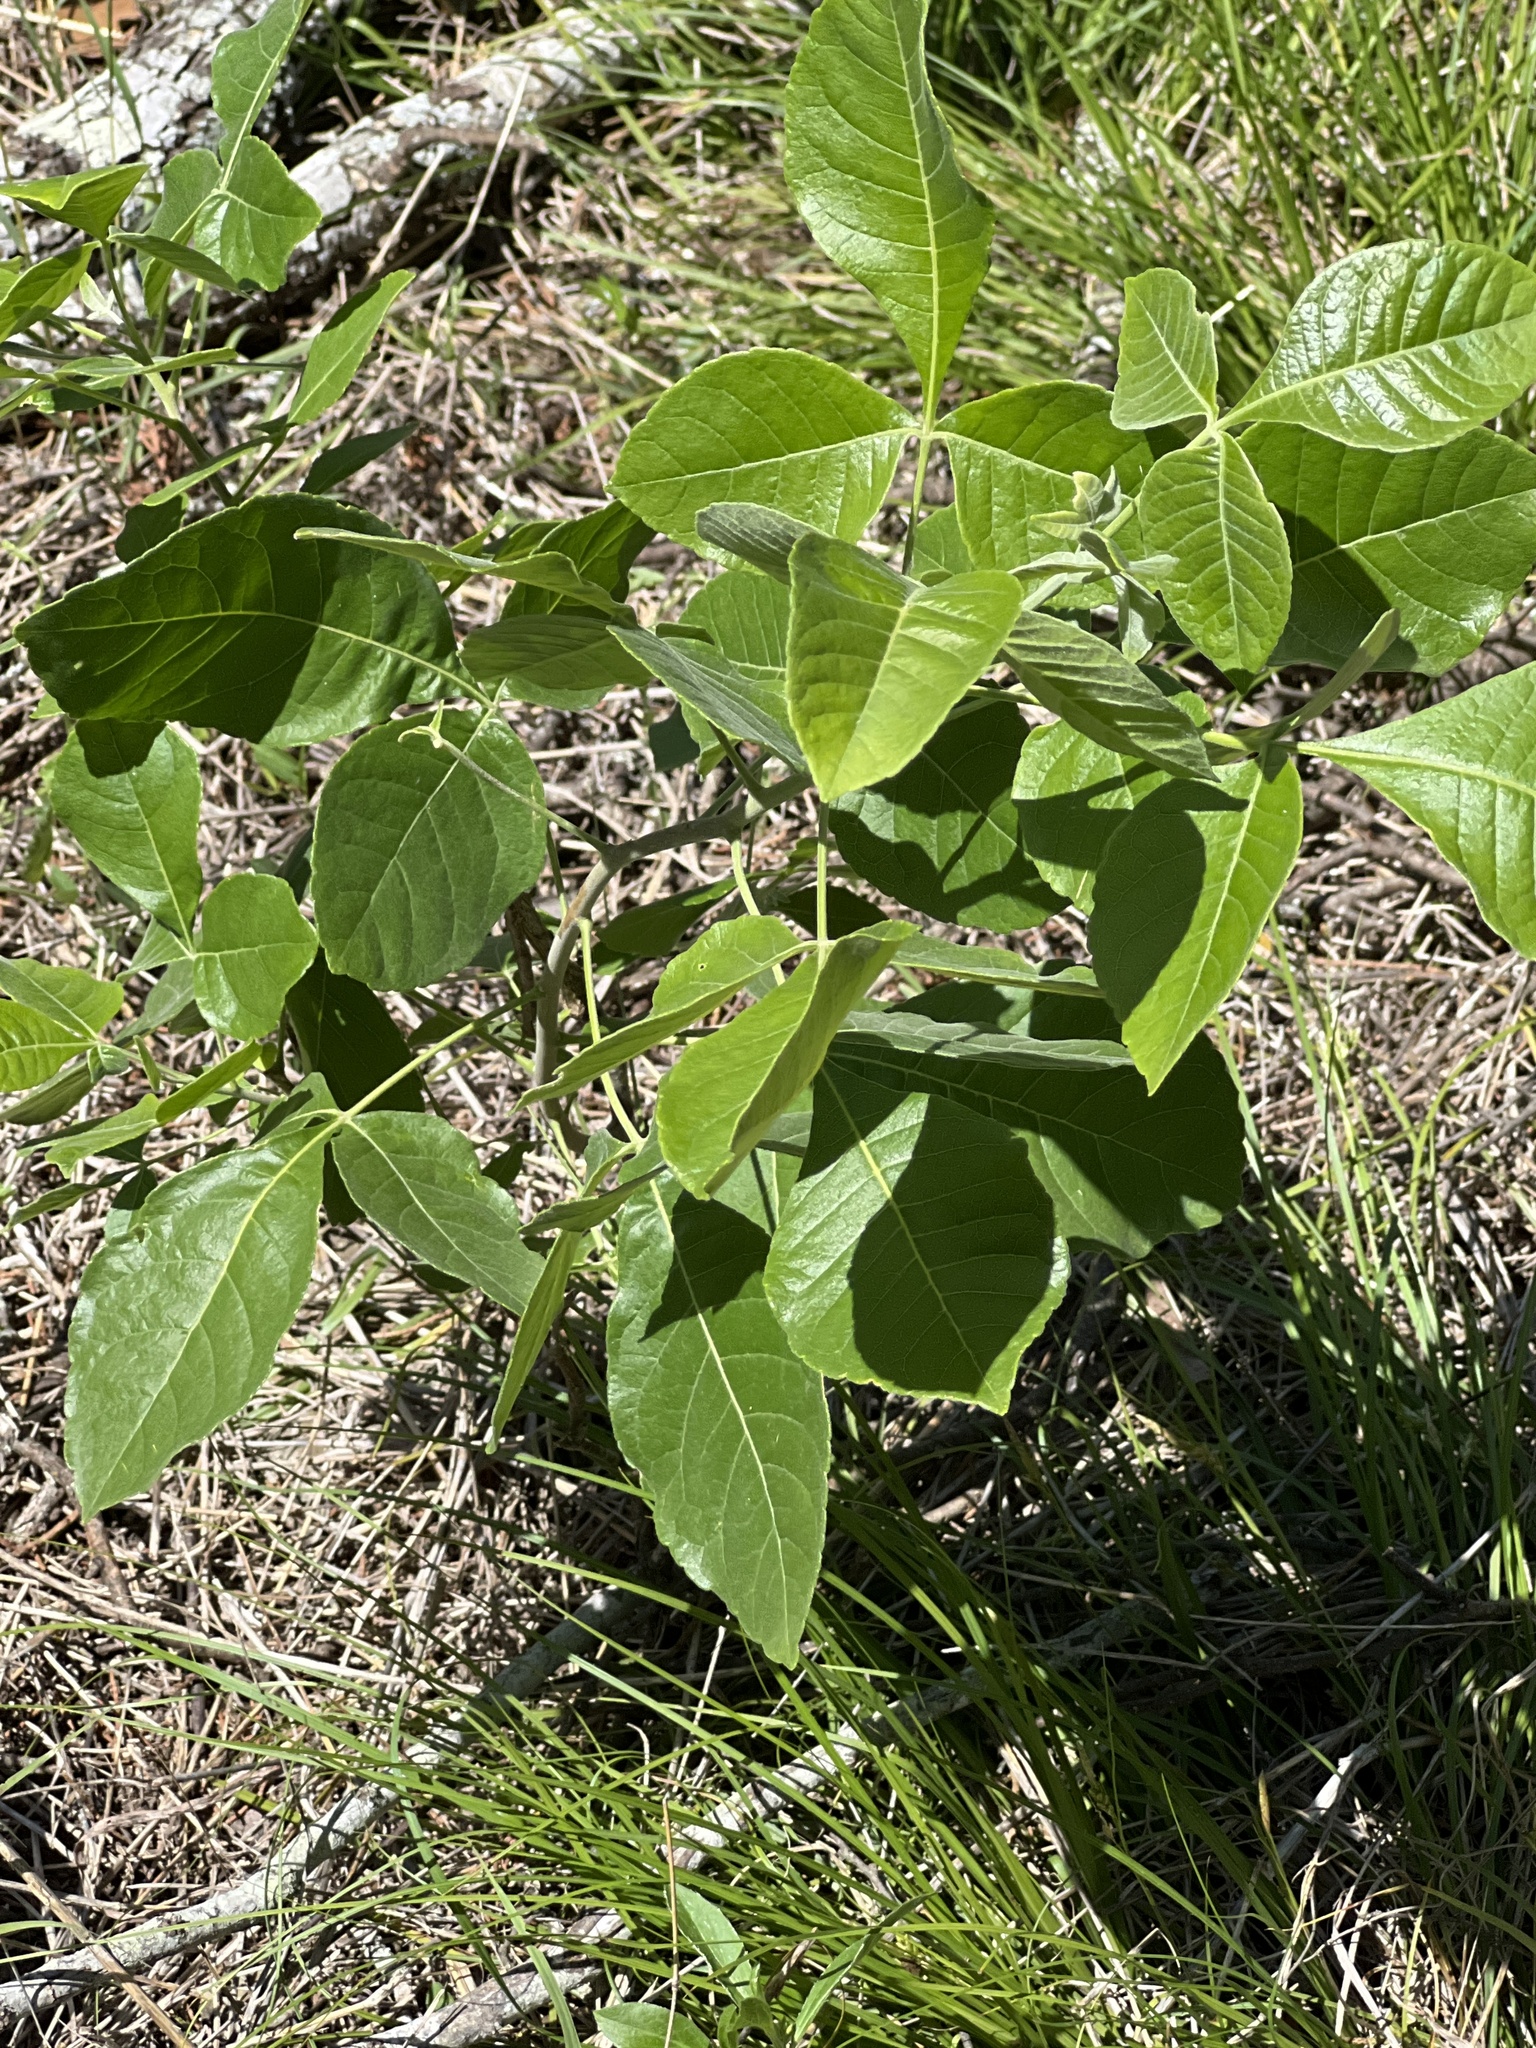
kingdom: Plantae
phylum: Tracheophyta
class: Magnoliopsida
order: Sapindales
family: Rutaceae
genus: Ptelea
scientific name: Ptelea trifoliata
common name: Common hop-tree
